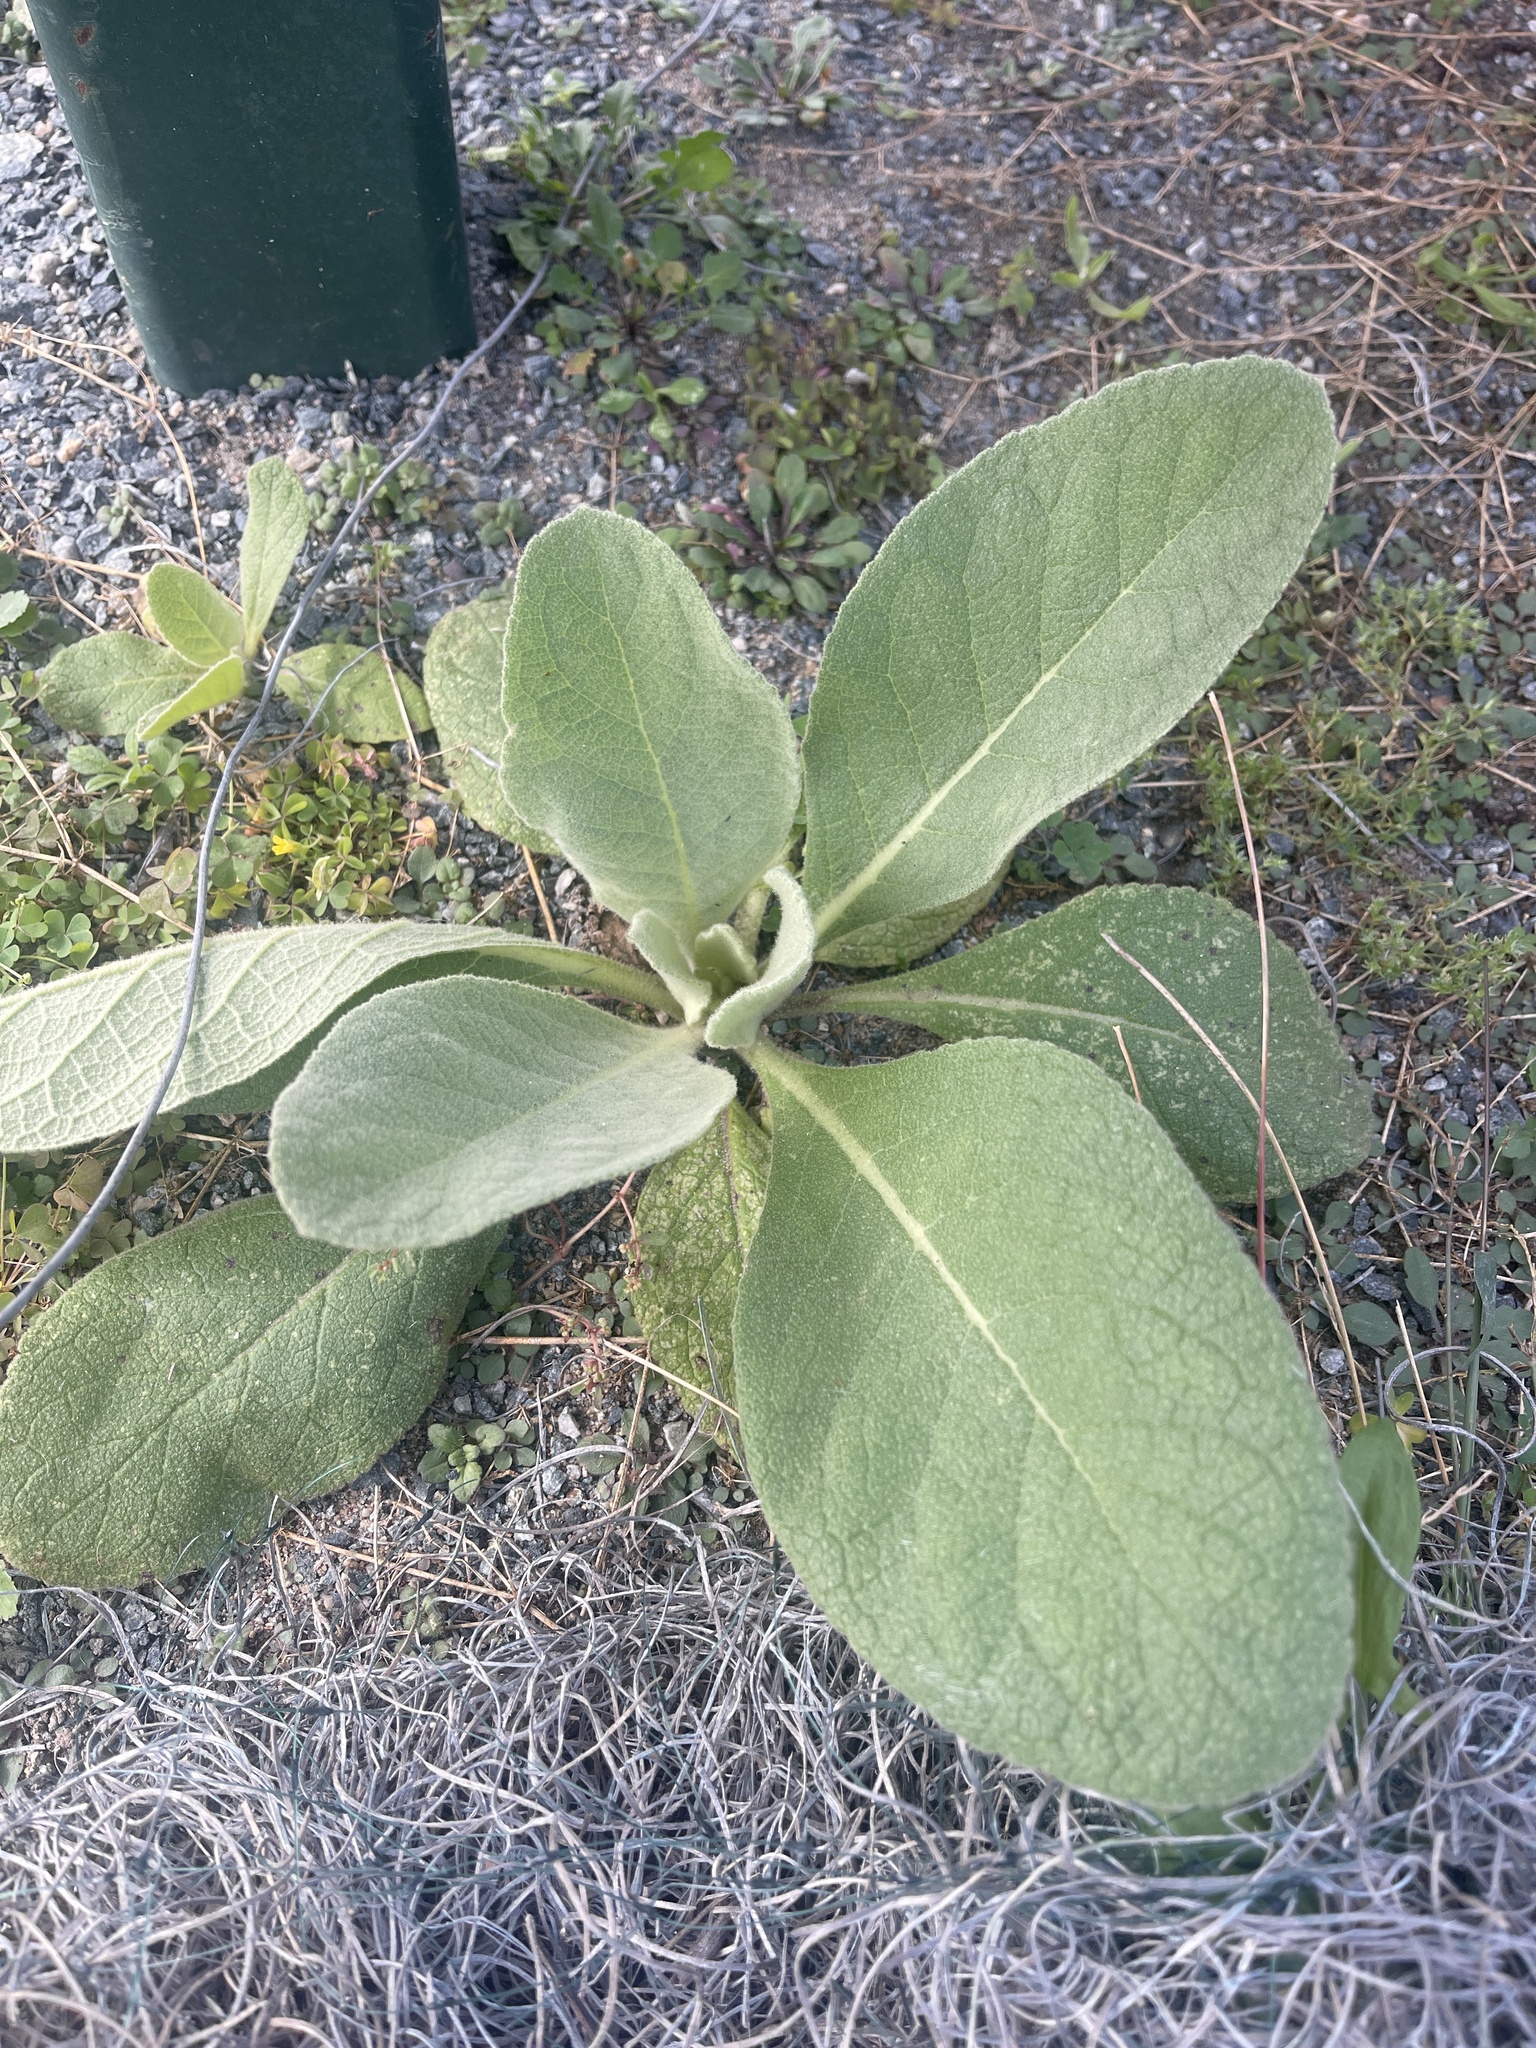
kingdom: Plantae
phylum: Tracheophyta
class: Magnoliopsida
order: Lamiales
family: Scrophulariaceae
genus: Verbascum
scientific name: Verbascum thapsus
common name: Common mullein
